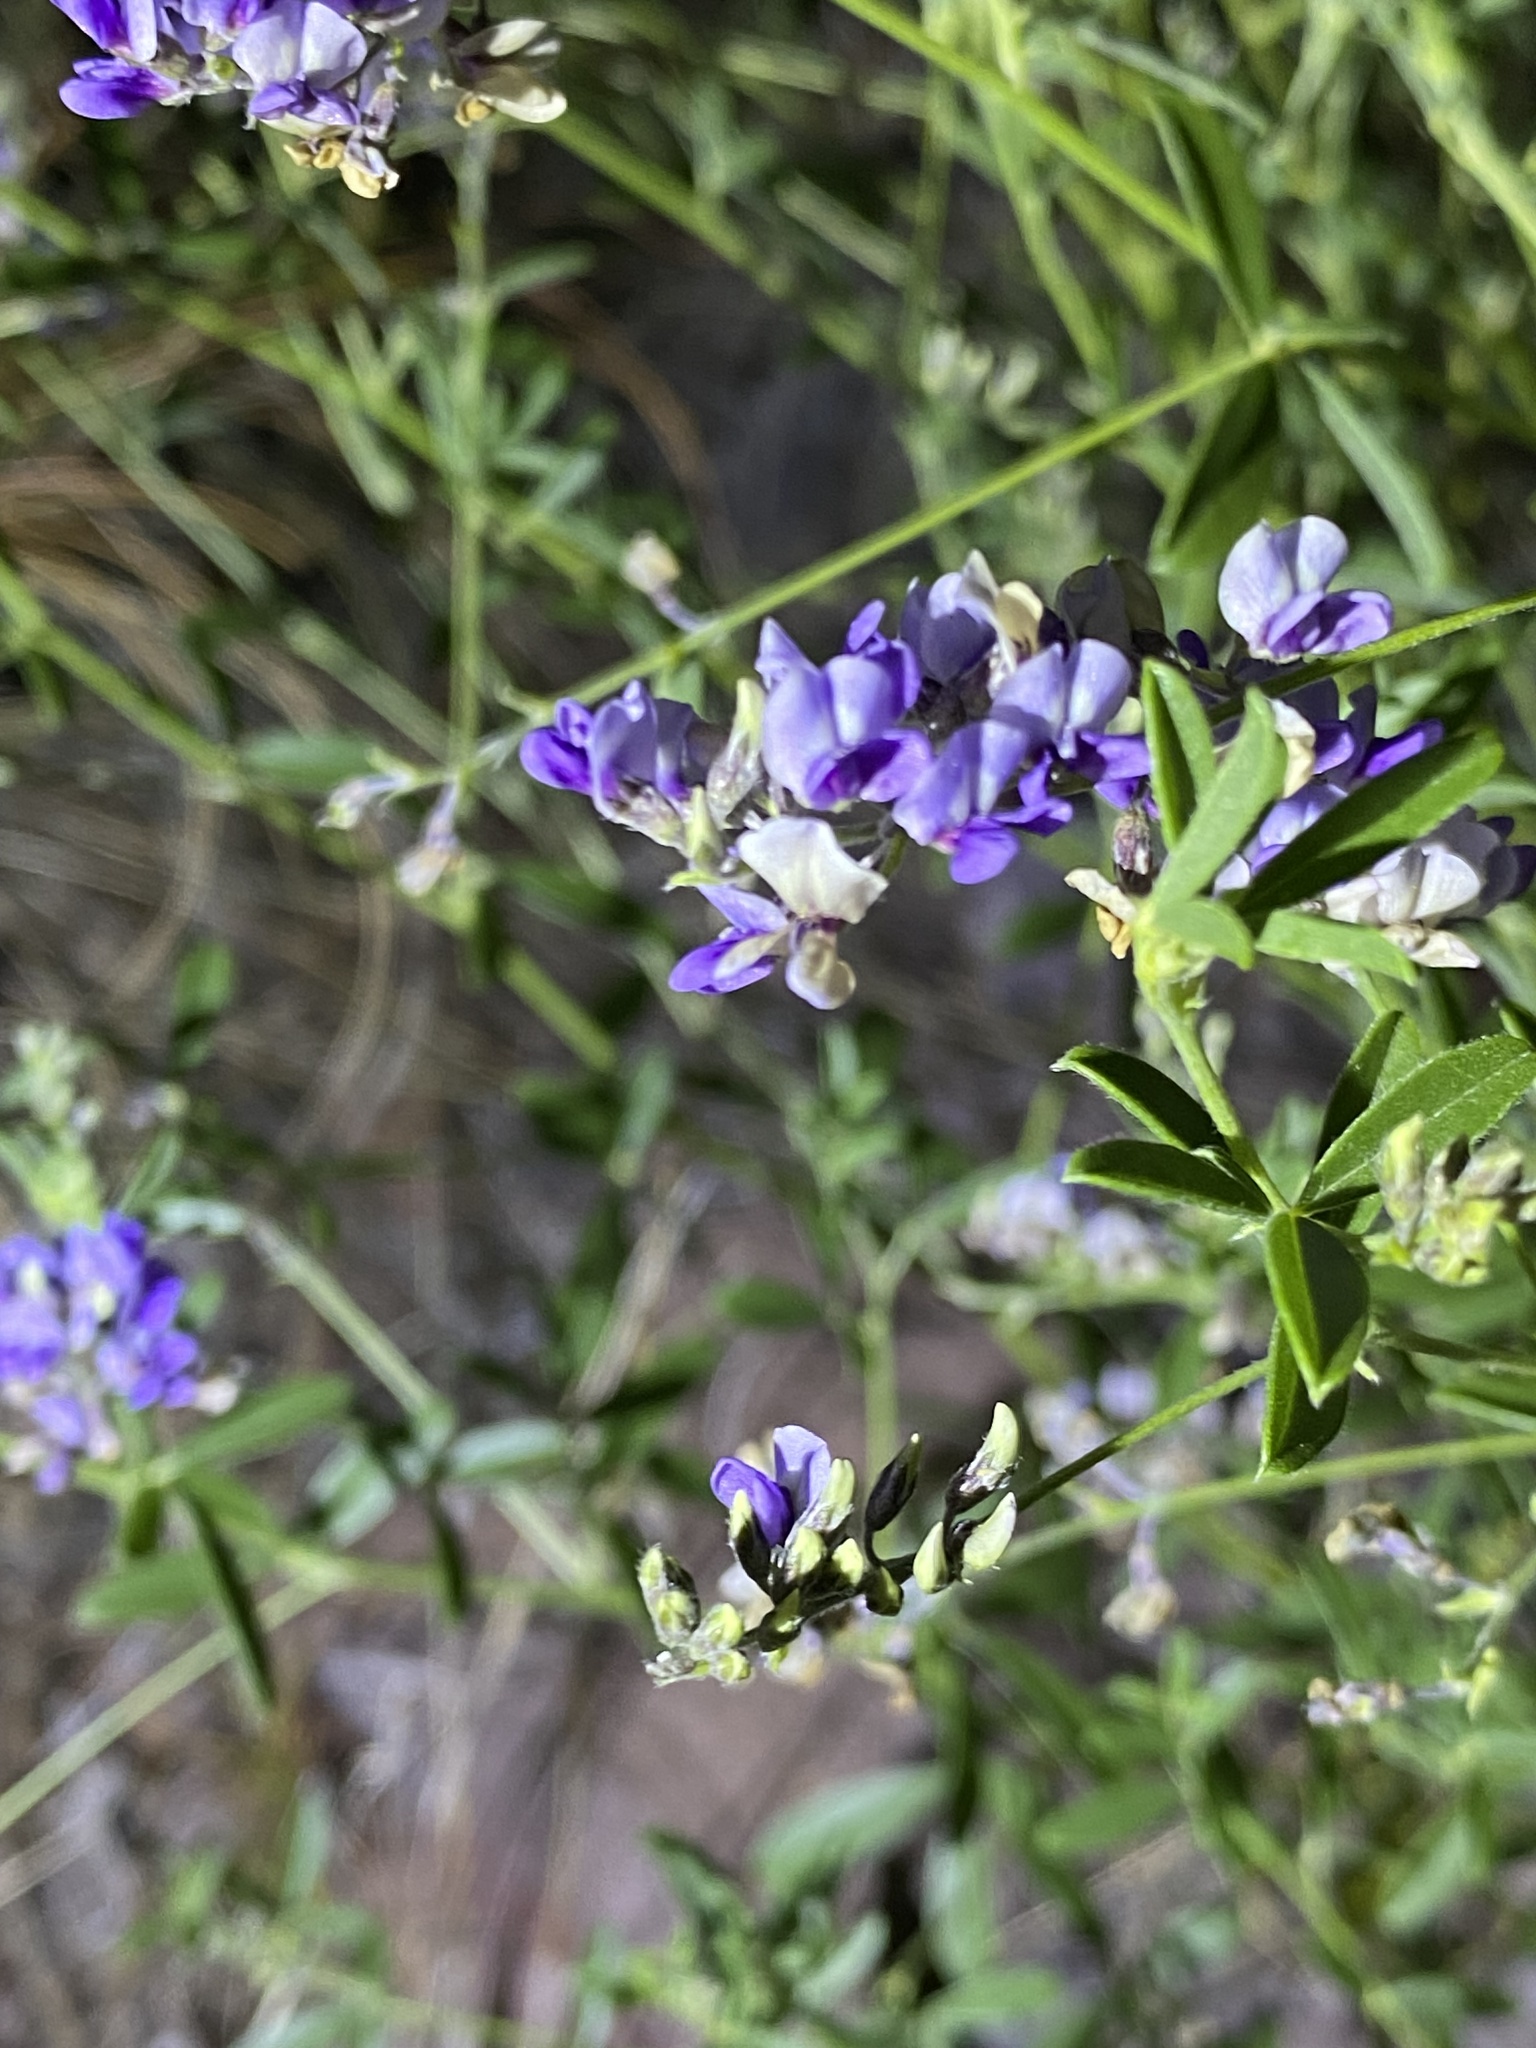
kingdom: Plantae
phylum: Tracheophyta
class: Magnoliopsida
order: Fabales
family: Fabaceae
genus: Pediomelum
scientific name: Pediomelum tenuiflorum
